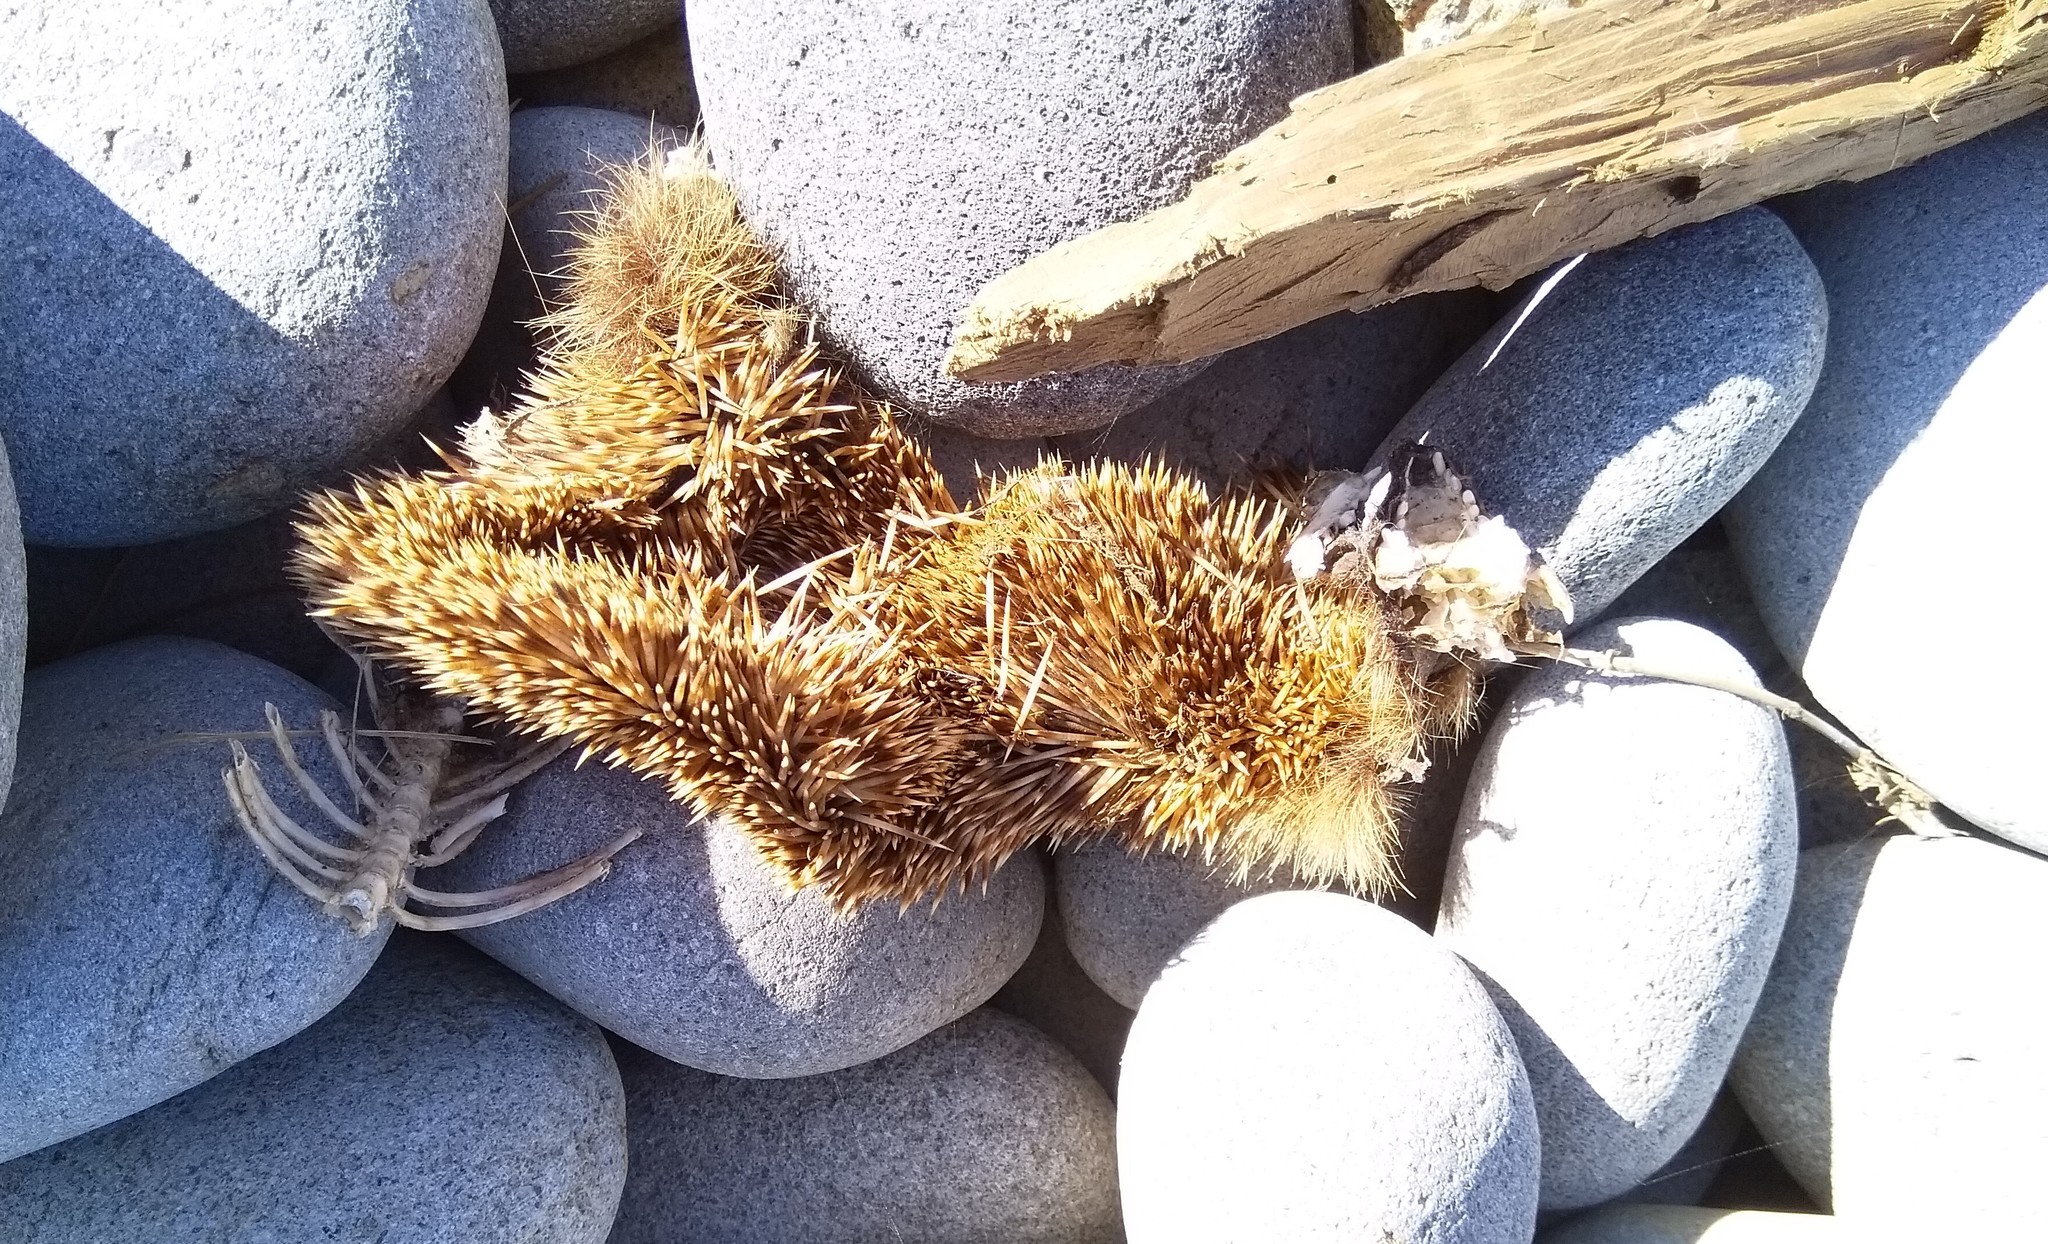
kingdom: Animalia
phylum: Chordata
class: Mammalia
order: Erinaceomorpha
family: Erinaceidae
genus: Erinaceus
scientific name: Erinaceus europaeus
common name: West european hedgehog
